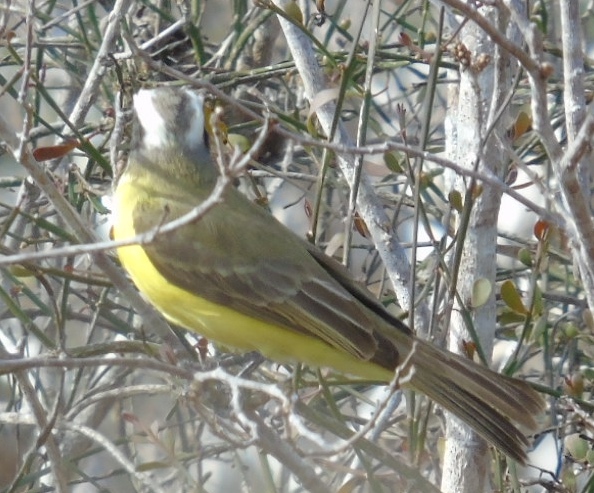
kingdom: Animalia
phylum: Chordata
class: Aves
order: Passeriformes
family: Tyrannidae
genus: Myiozetetes
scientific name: Myiozetetes similis
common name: Social flycatcher
